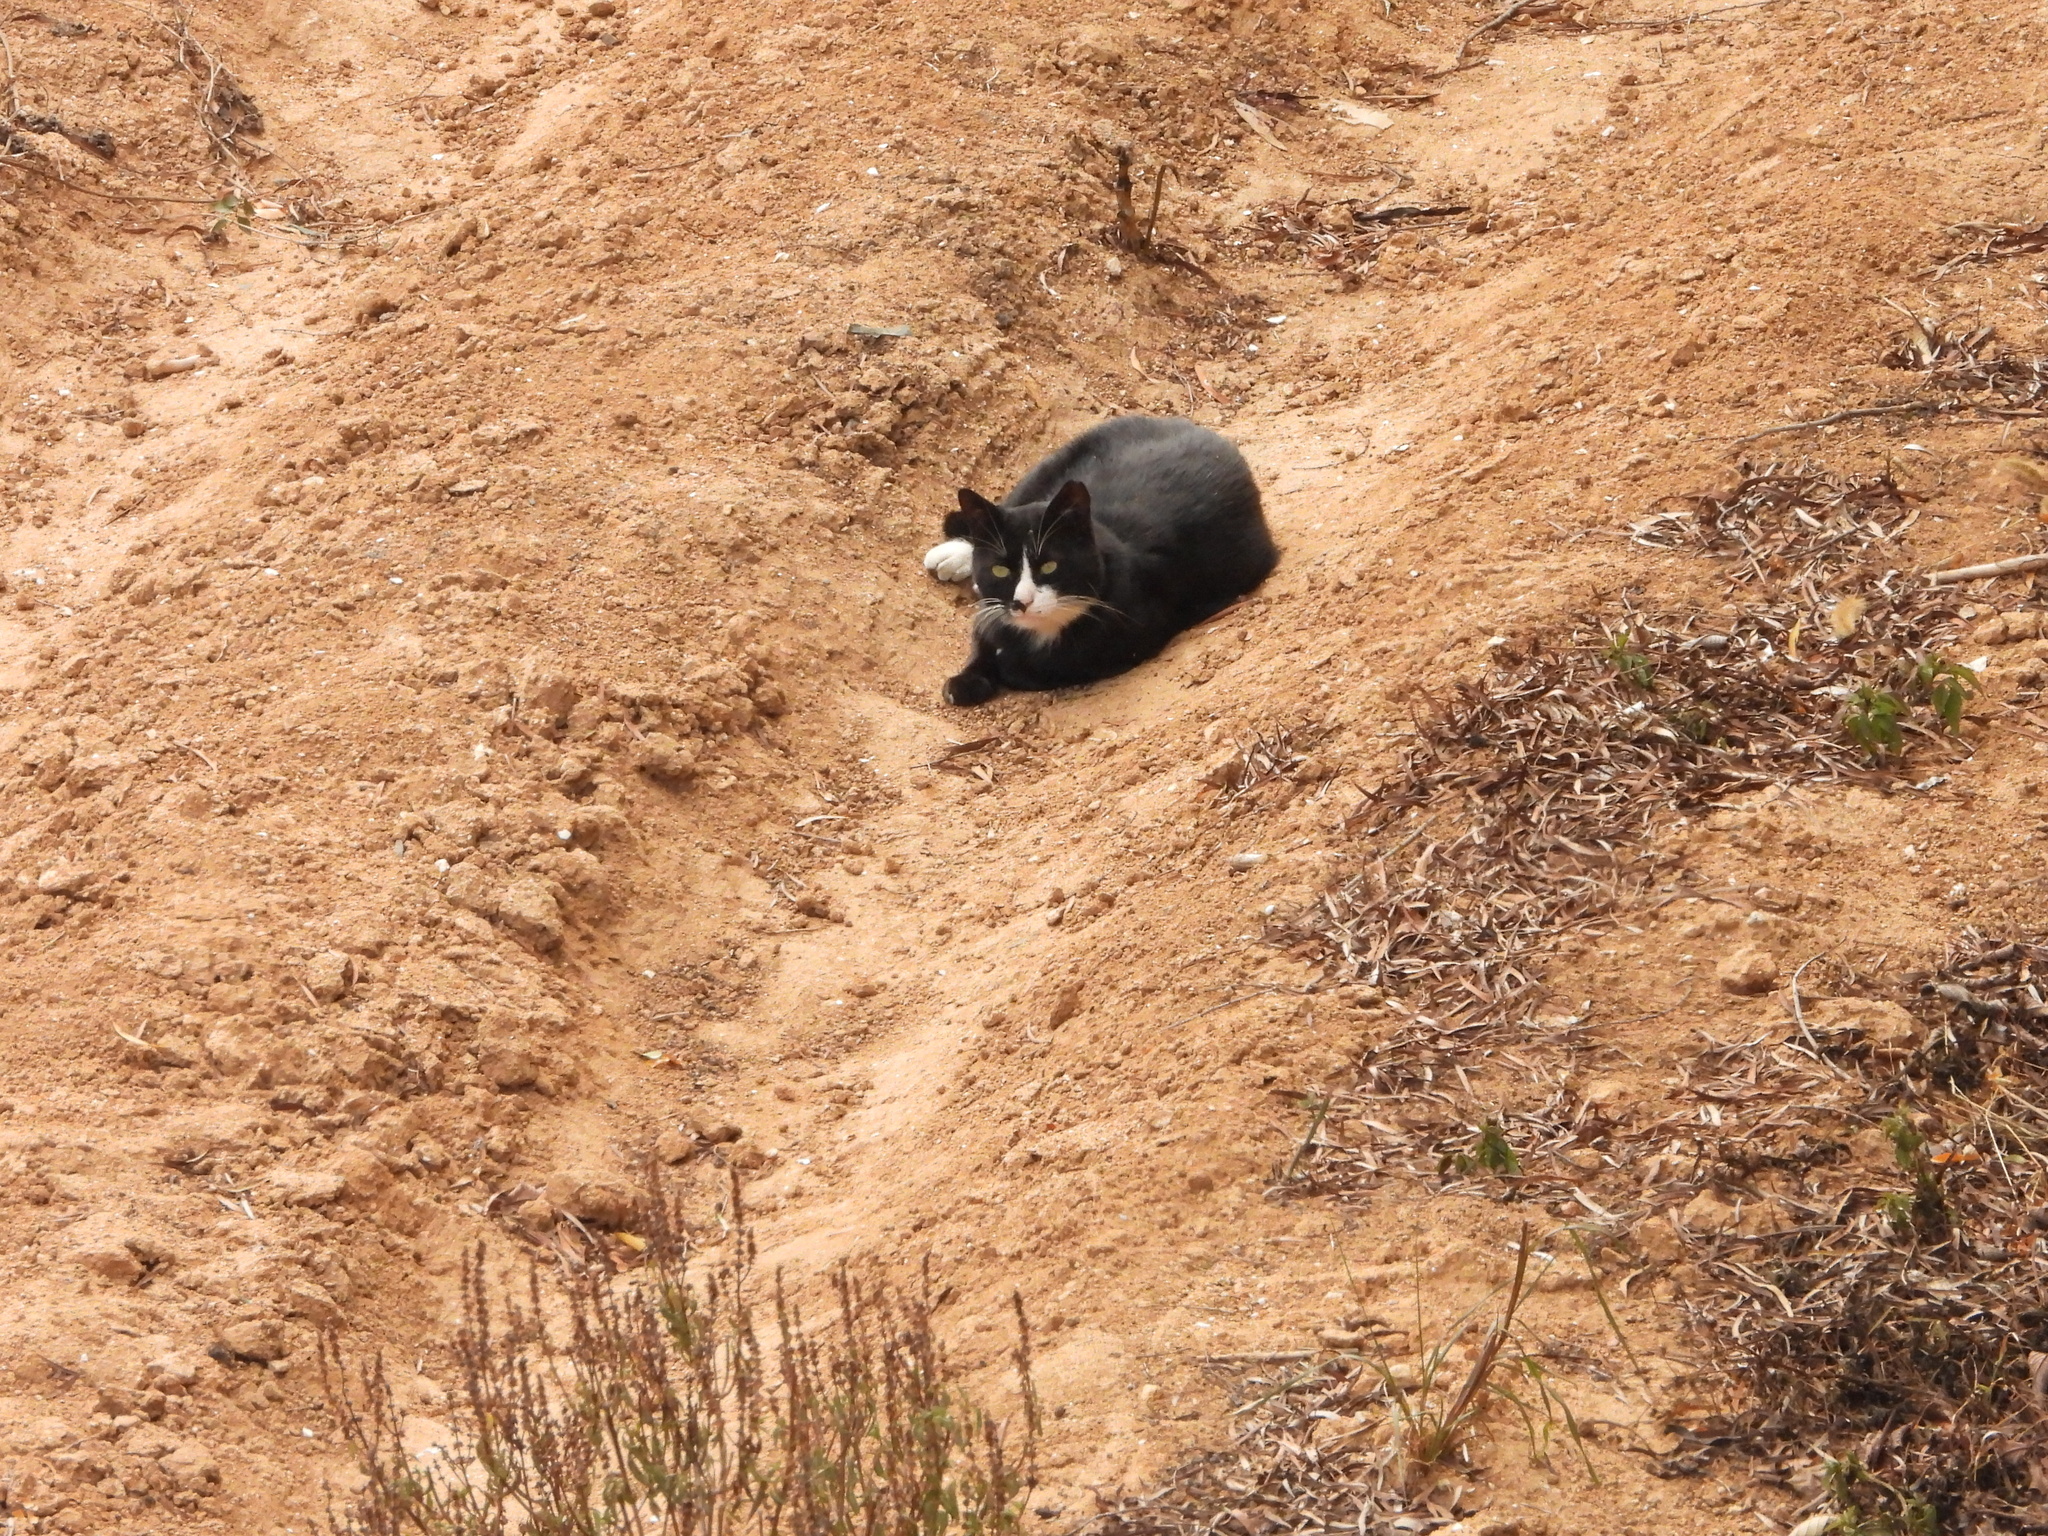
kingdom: Animalia
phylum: Chordata
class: Mammalia
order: Carnivora
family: Felidae
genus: Felis
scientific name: Felis catus
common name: Domestic cat
